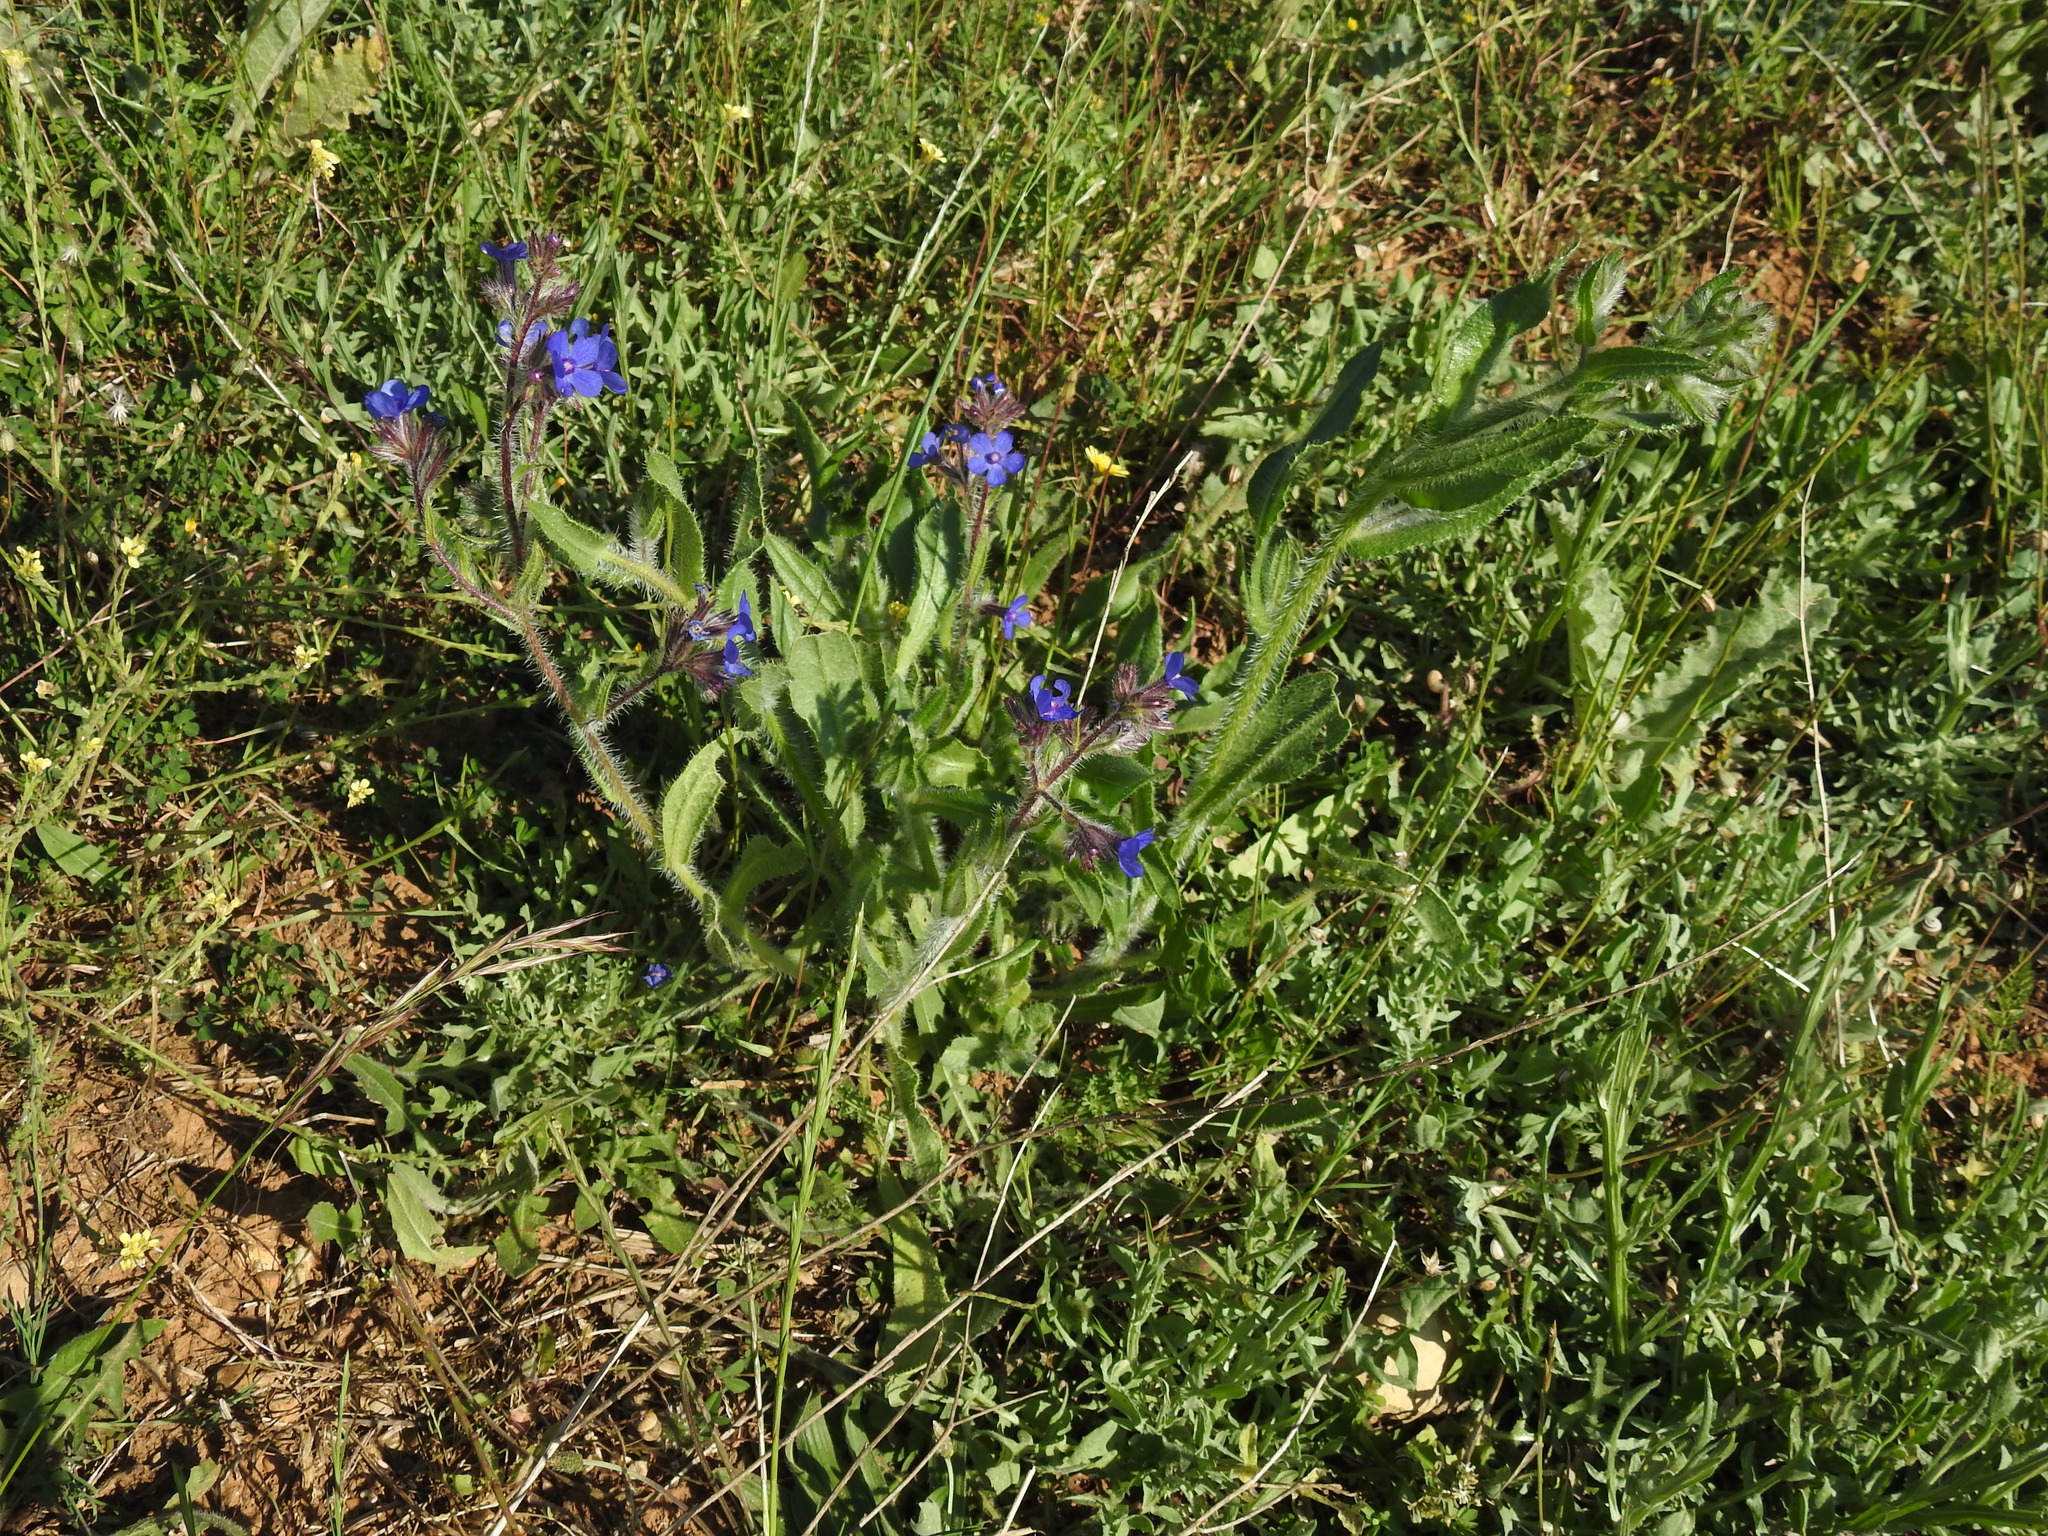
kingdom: Plantae
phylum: Tracheophyta
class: Magnoliopsida
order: Boraginales
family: Boraginaceae
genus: Anchusa
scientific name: Anchusa azurea
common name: Garden anchusa
